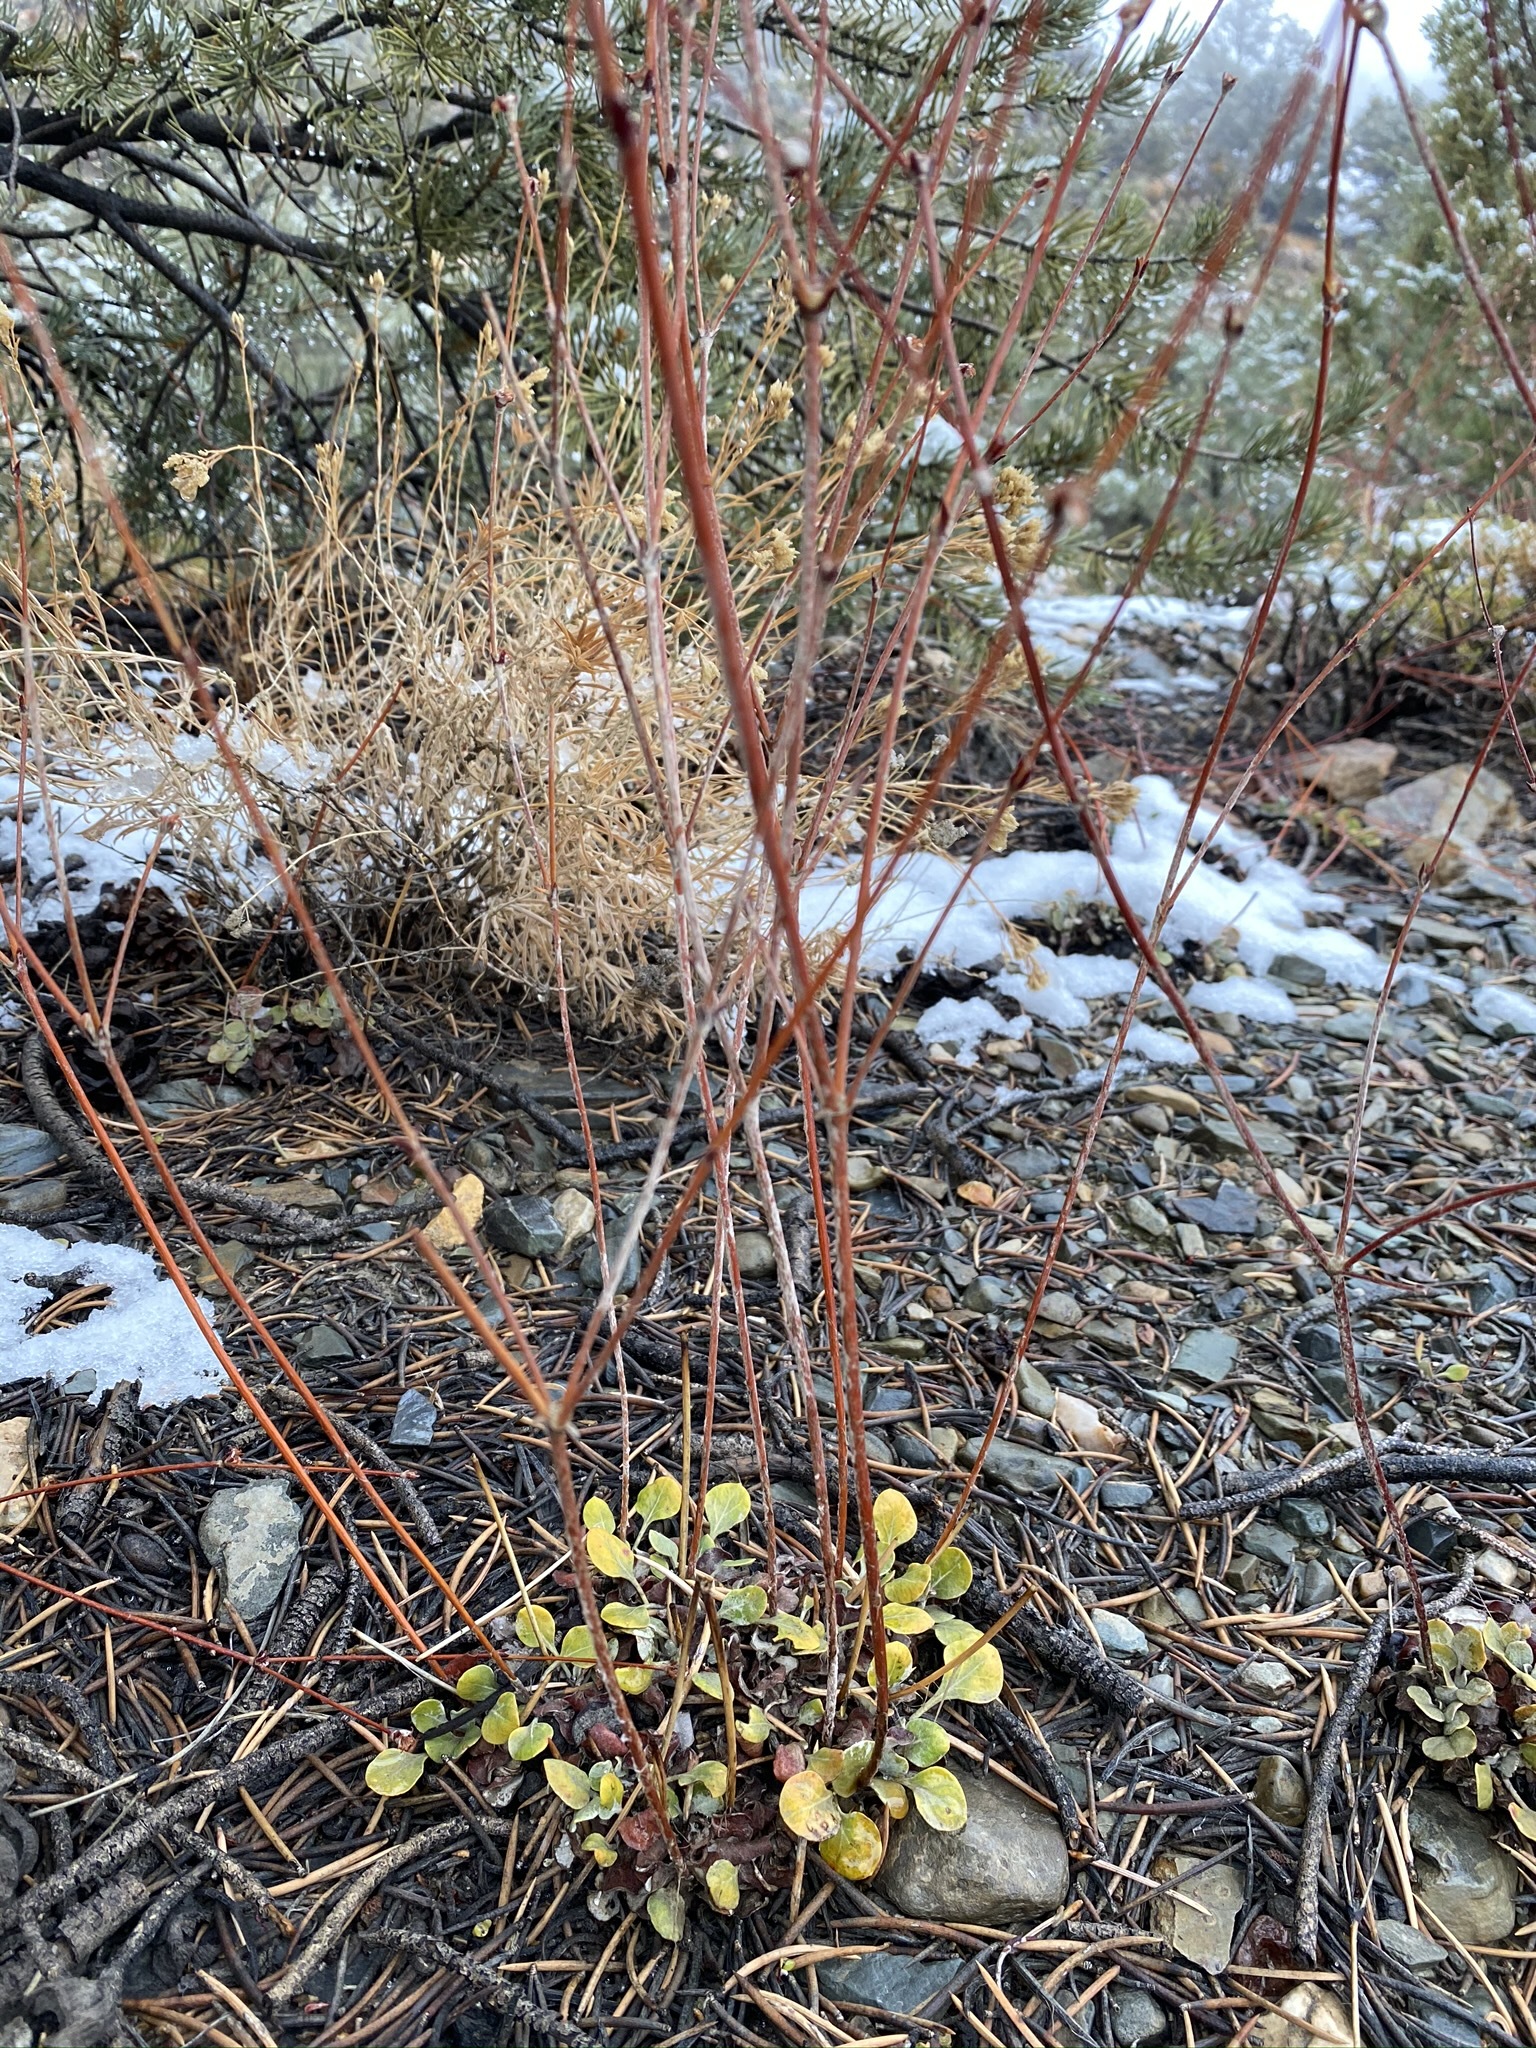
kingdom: Plantae
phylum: Tracheophyta
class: Magnoliopsida
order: Caryophyllales
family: Polygonaceae
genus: Eriogonum
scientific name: Eriogonum mensicola
